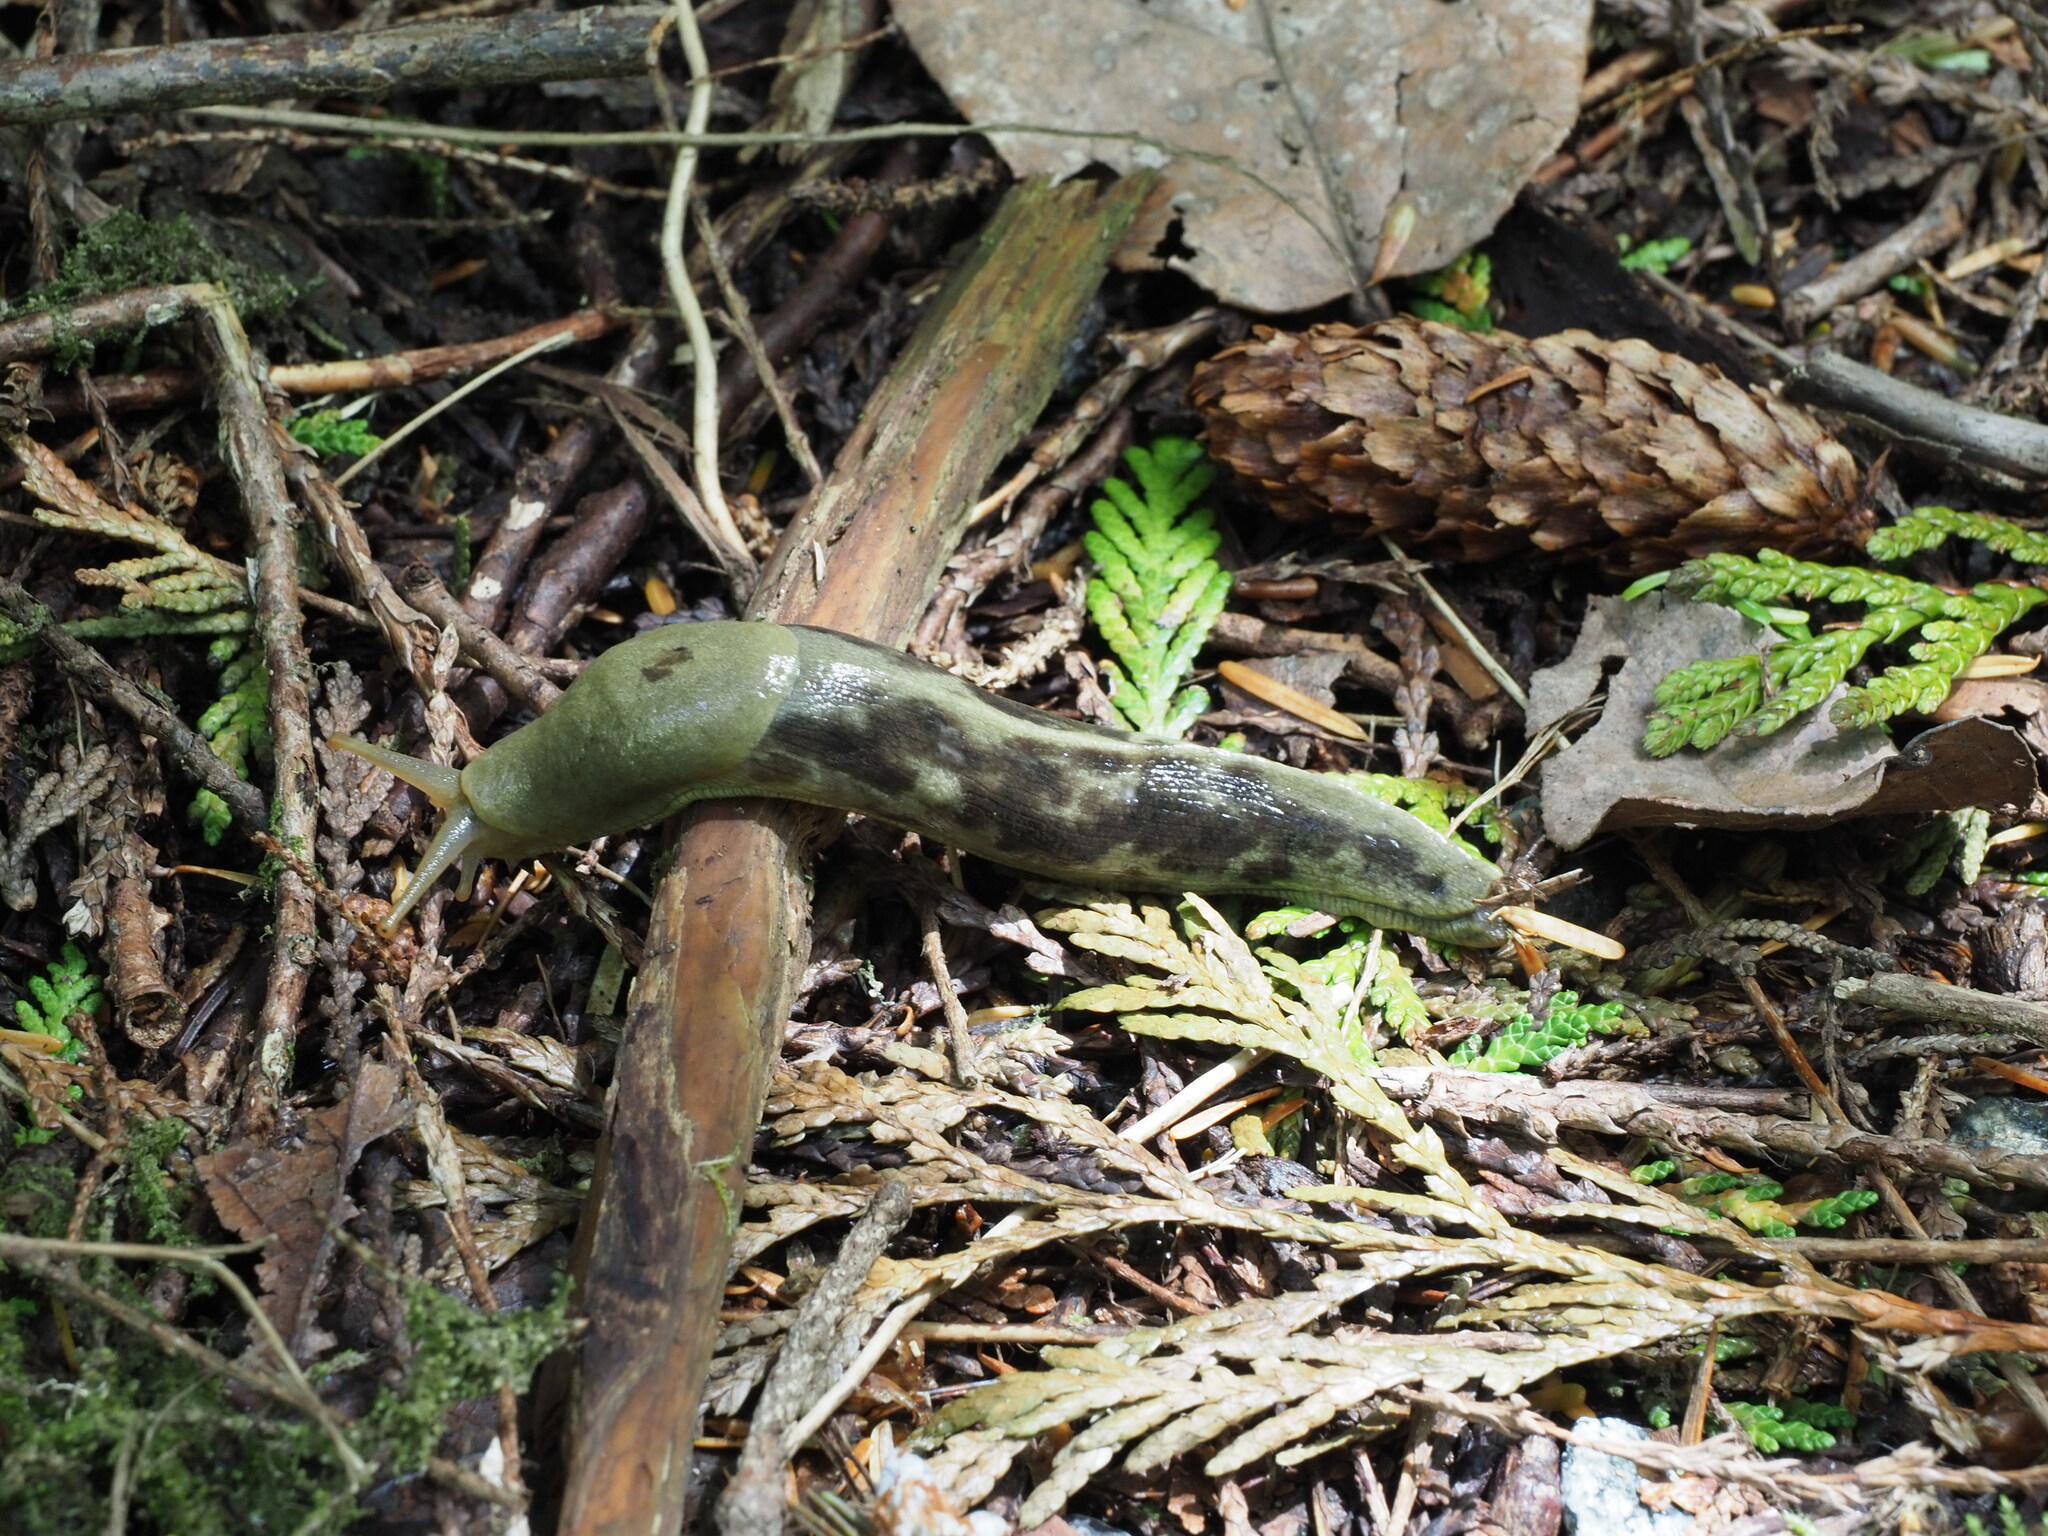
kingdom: Animalia
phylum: Mollusca
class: Gastropoda
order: Stylommatophora
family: Ariolimacidae
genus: Ariolimax
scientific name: Ariolimax columbianus
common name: Pacific banana slug
